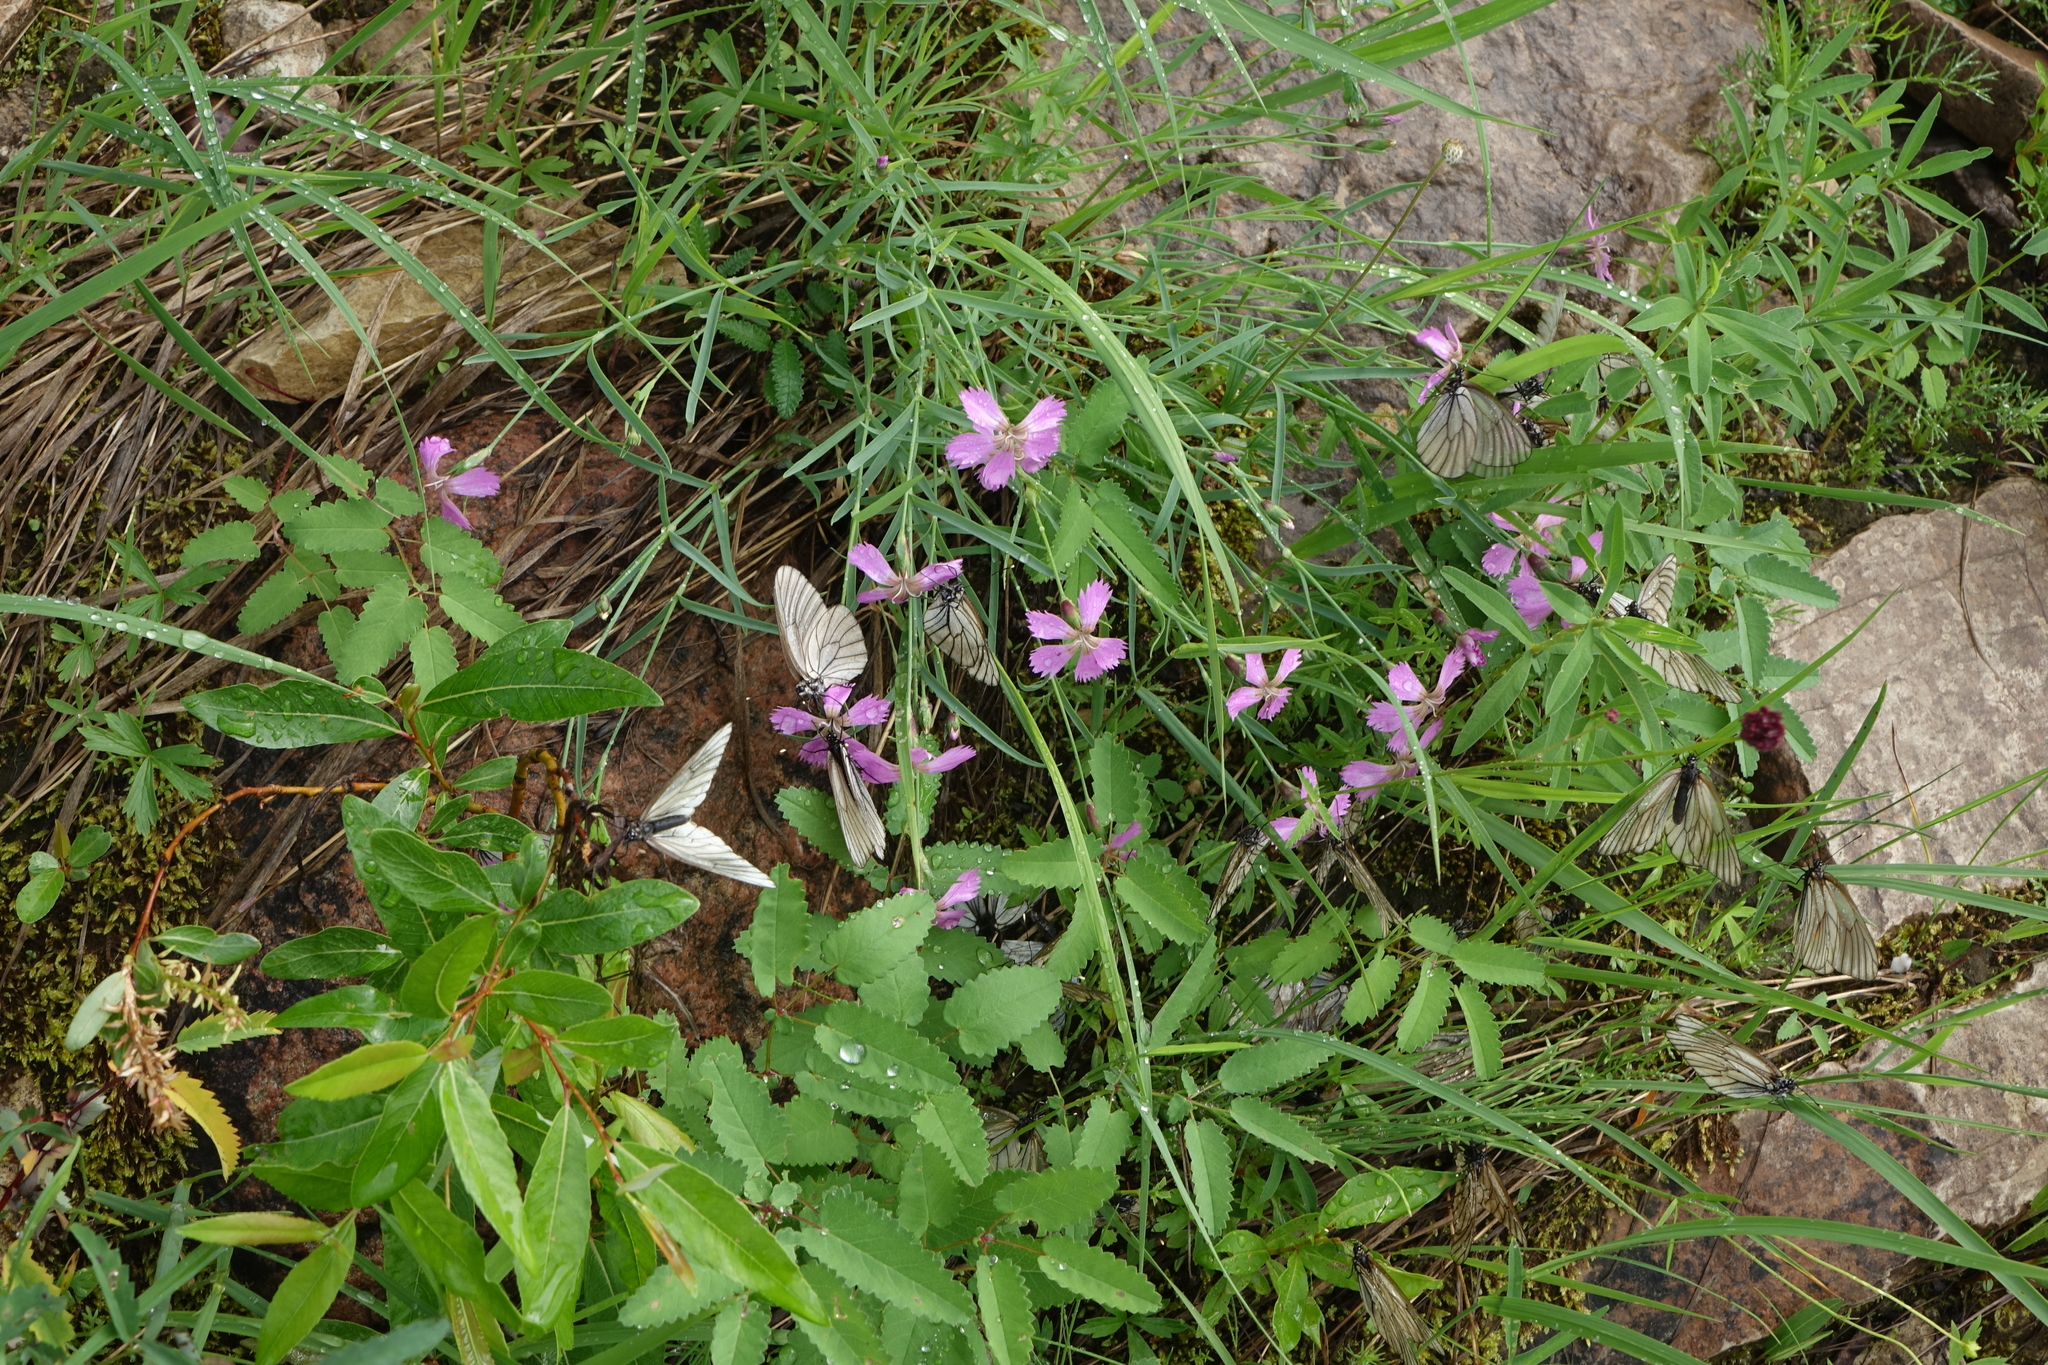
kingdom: Plantae
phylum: Tracheophyta
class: Magnoliopsida
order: Caryophyllales
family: Caryophyllaceae
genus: Dianthus
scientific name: Dianthus repens
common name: Northern pink
